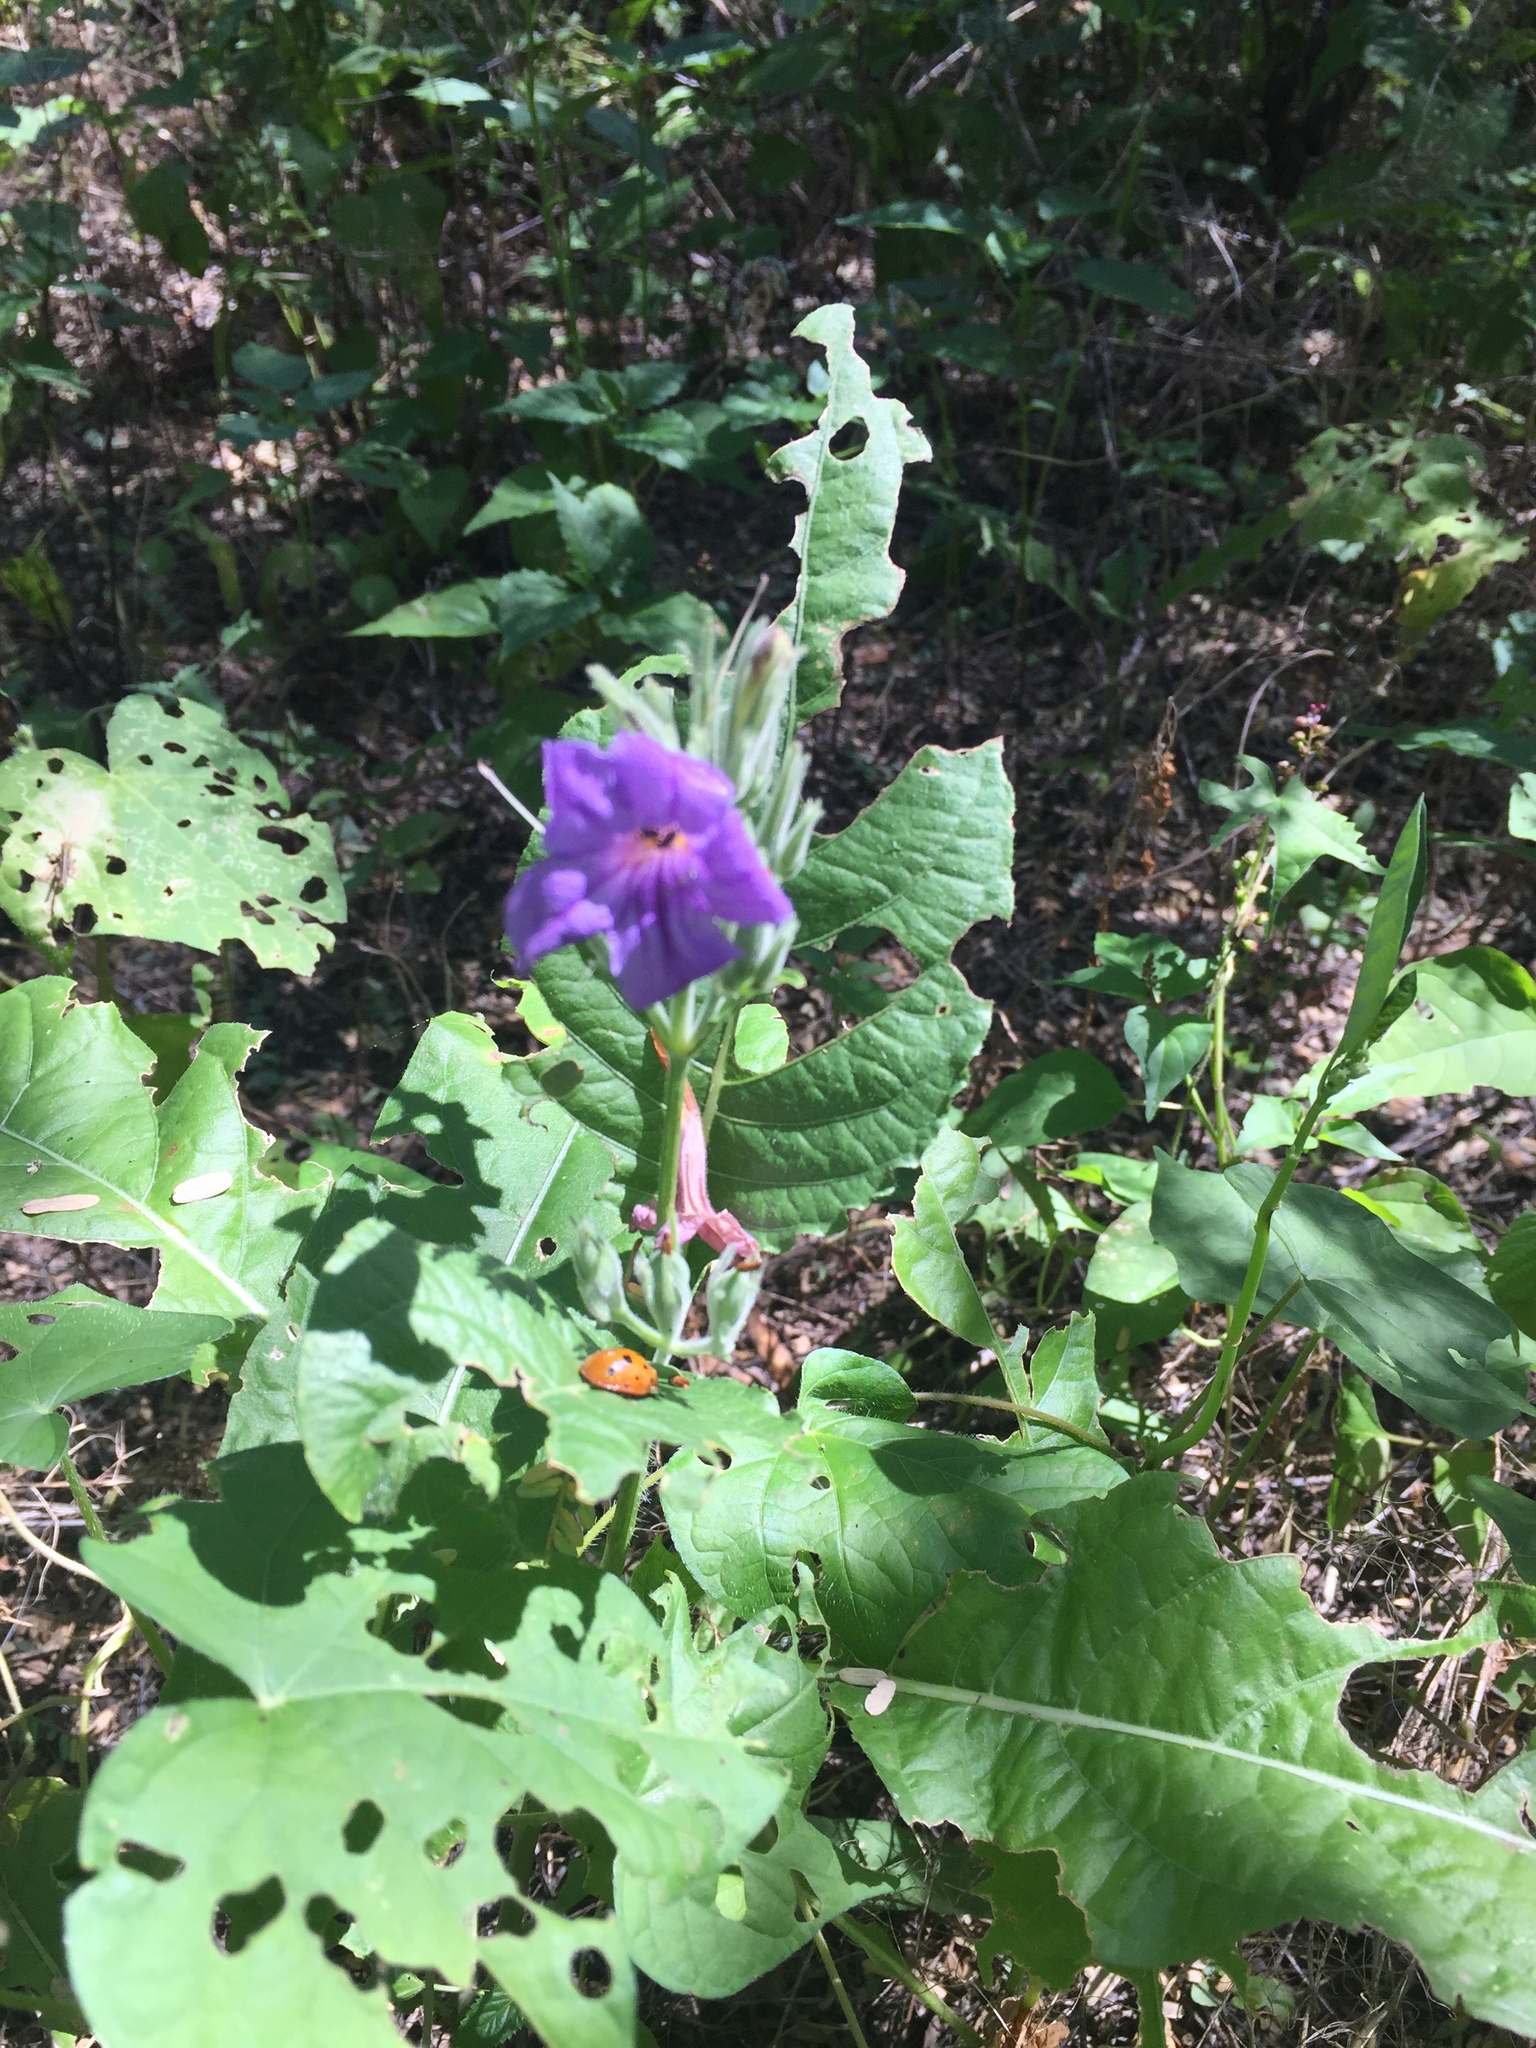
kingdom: Plantae
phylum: Tracheophyta
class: Magnoliopsida
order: Lamiales
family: Acanthaceae
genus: Ruellia
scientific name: Ruellia ciliatiflora
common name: Hairyflower wild petunia
